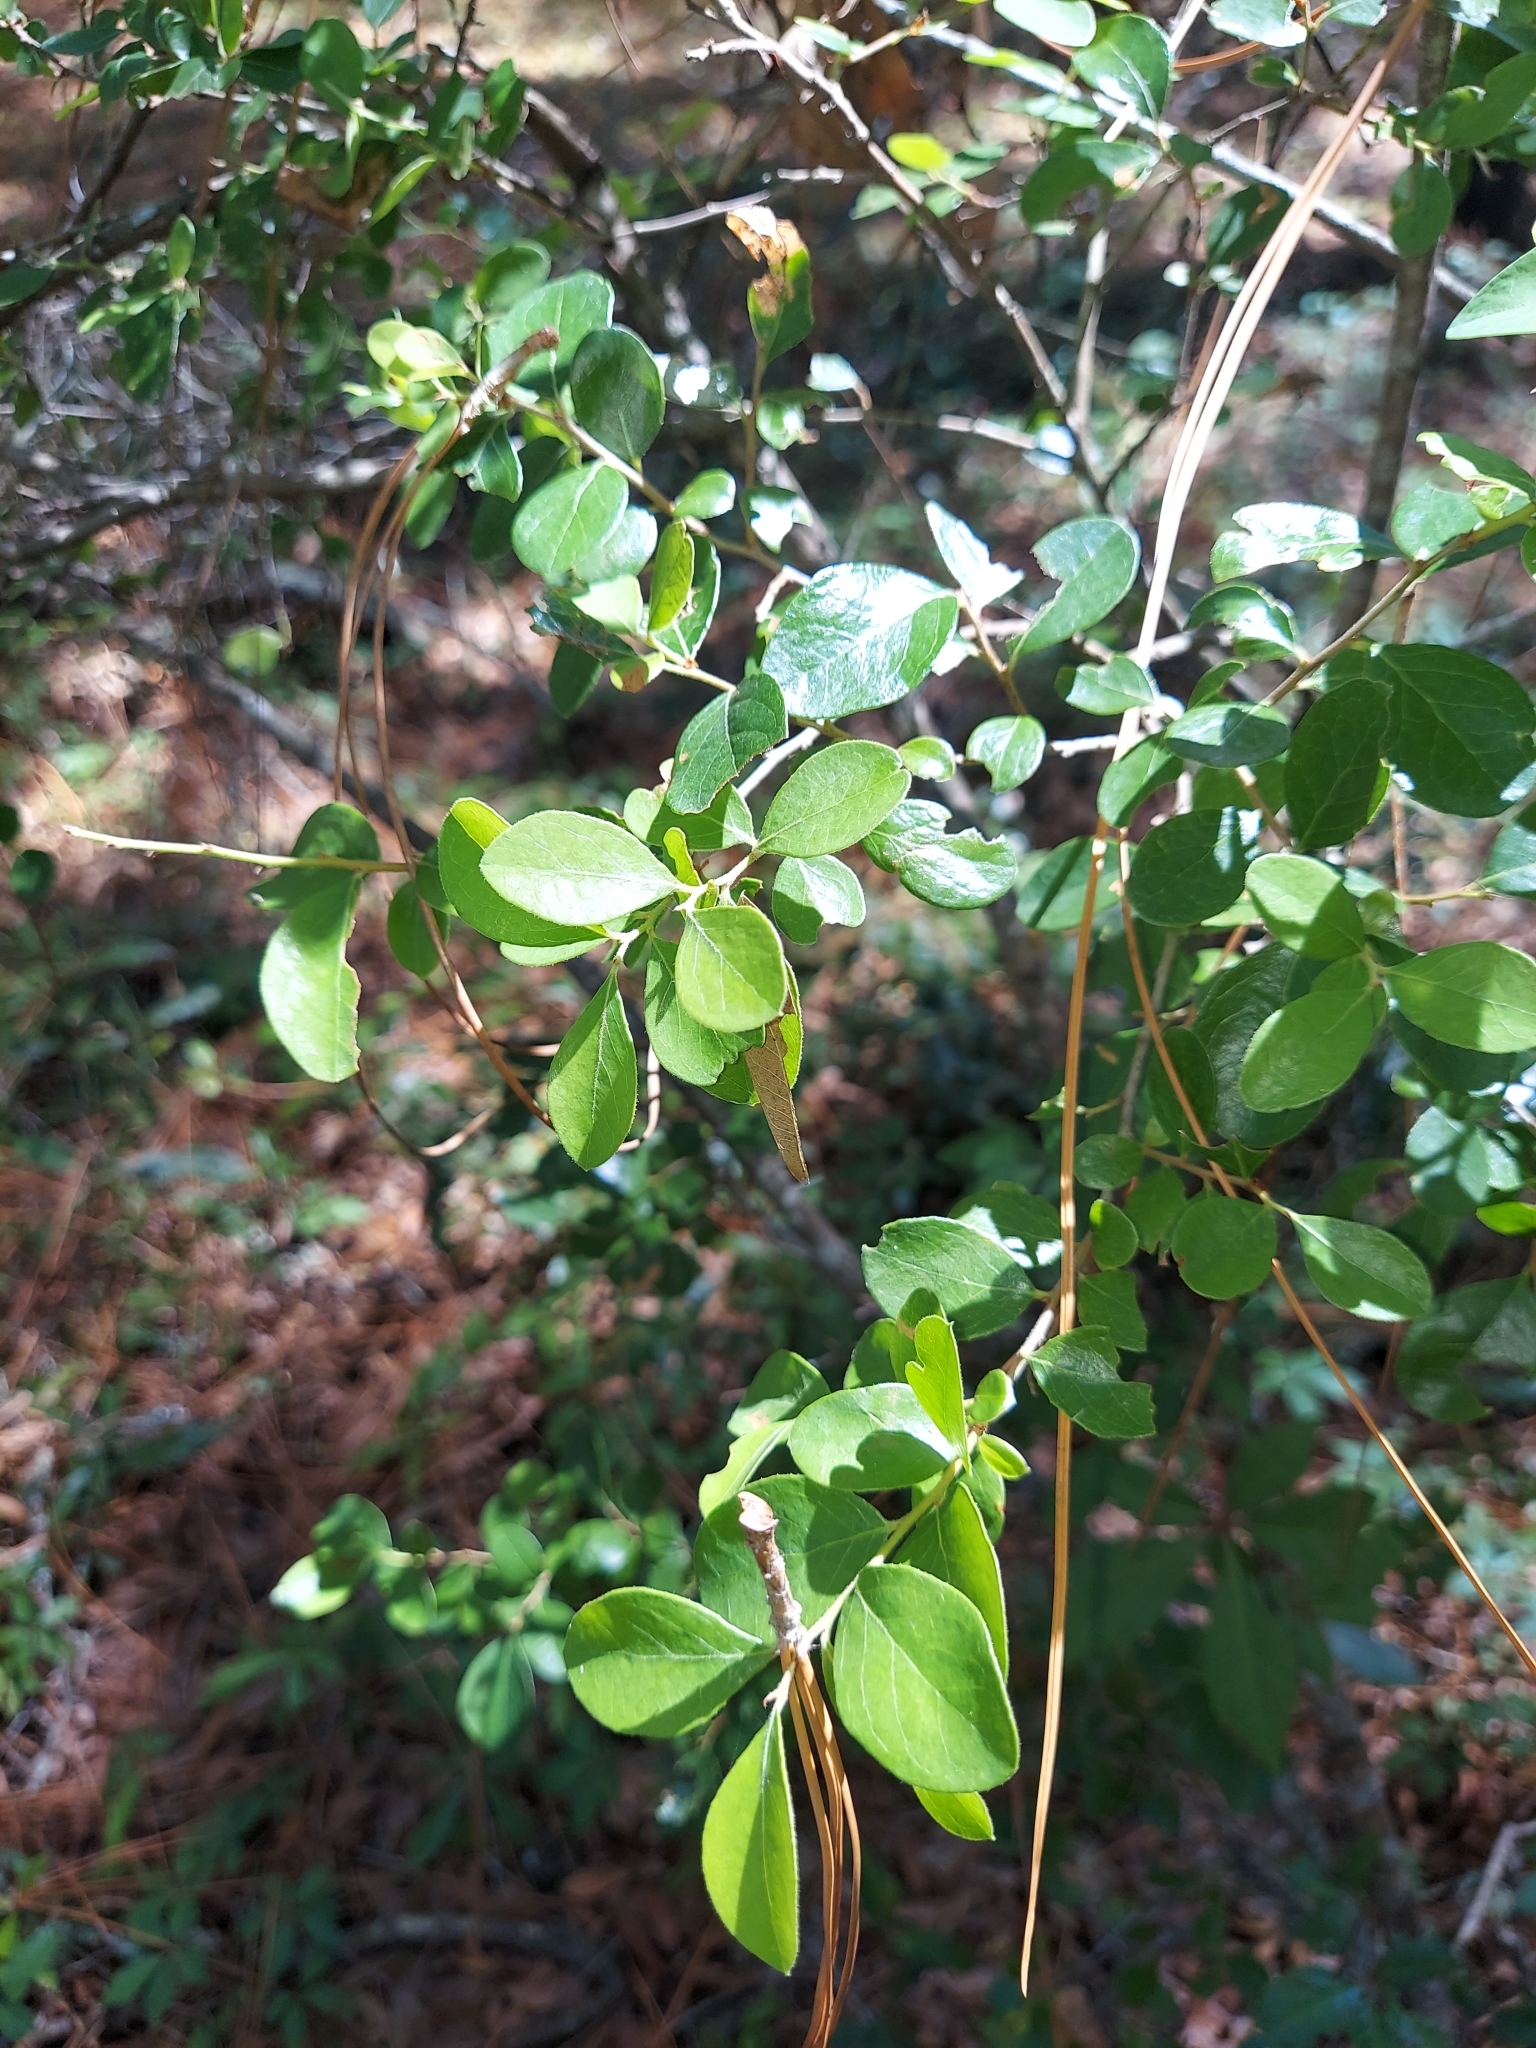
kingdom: Plantae
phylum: Tracheophyta
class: Magnoliopsida
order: Ericales
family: Ericaceae
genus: Vaccinium
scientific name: Vaccinium arboreum
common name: Farkleberry
